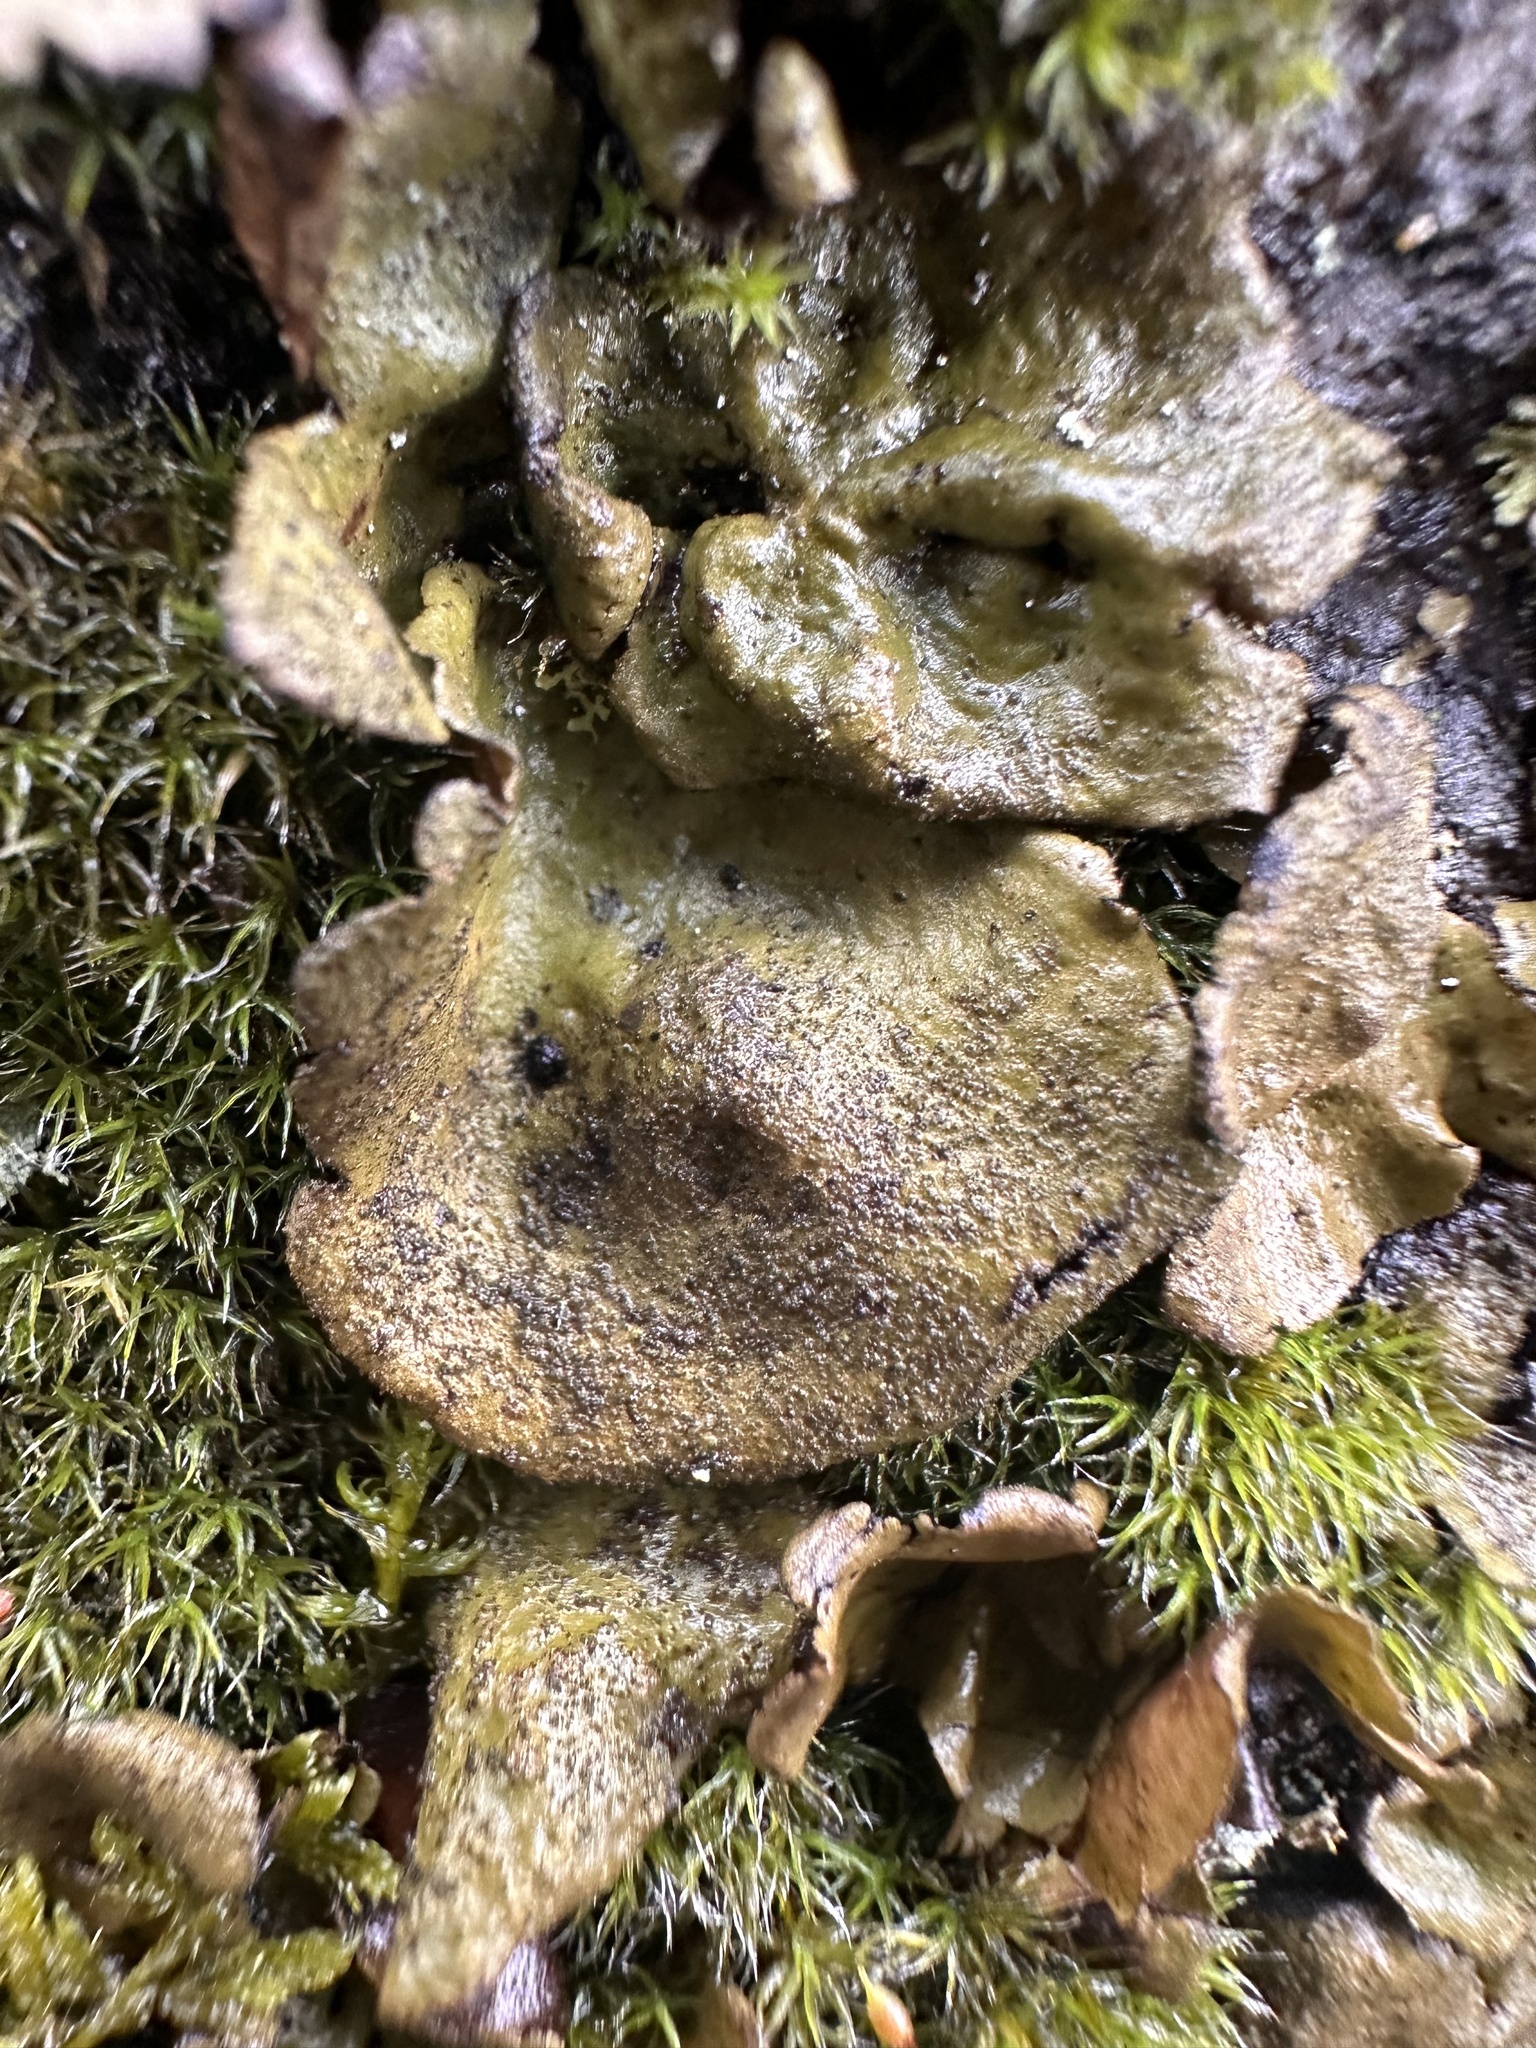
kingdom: Fungi
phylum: Ascomycota
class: Lecanoromycetes
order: Umbilicariales
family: Umbilicariaceae
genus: Umbilicaria
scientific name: Umbilicaria deusta
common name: Peppered rock tripe
